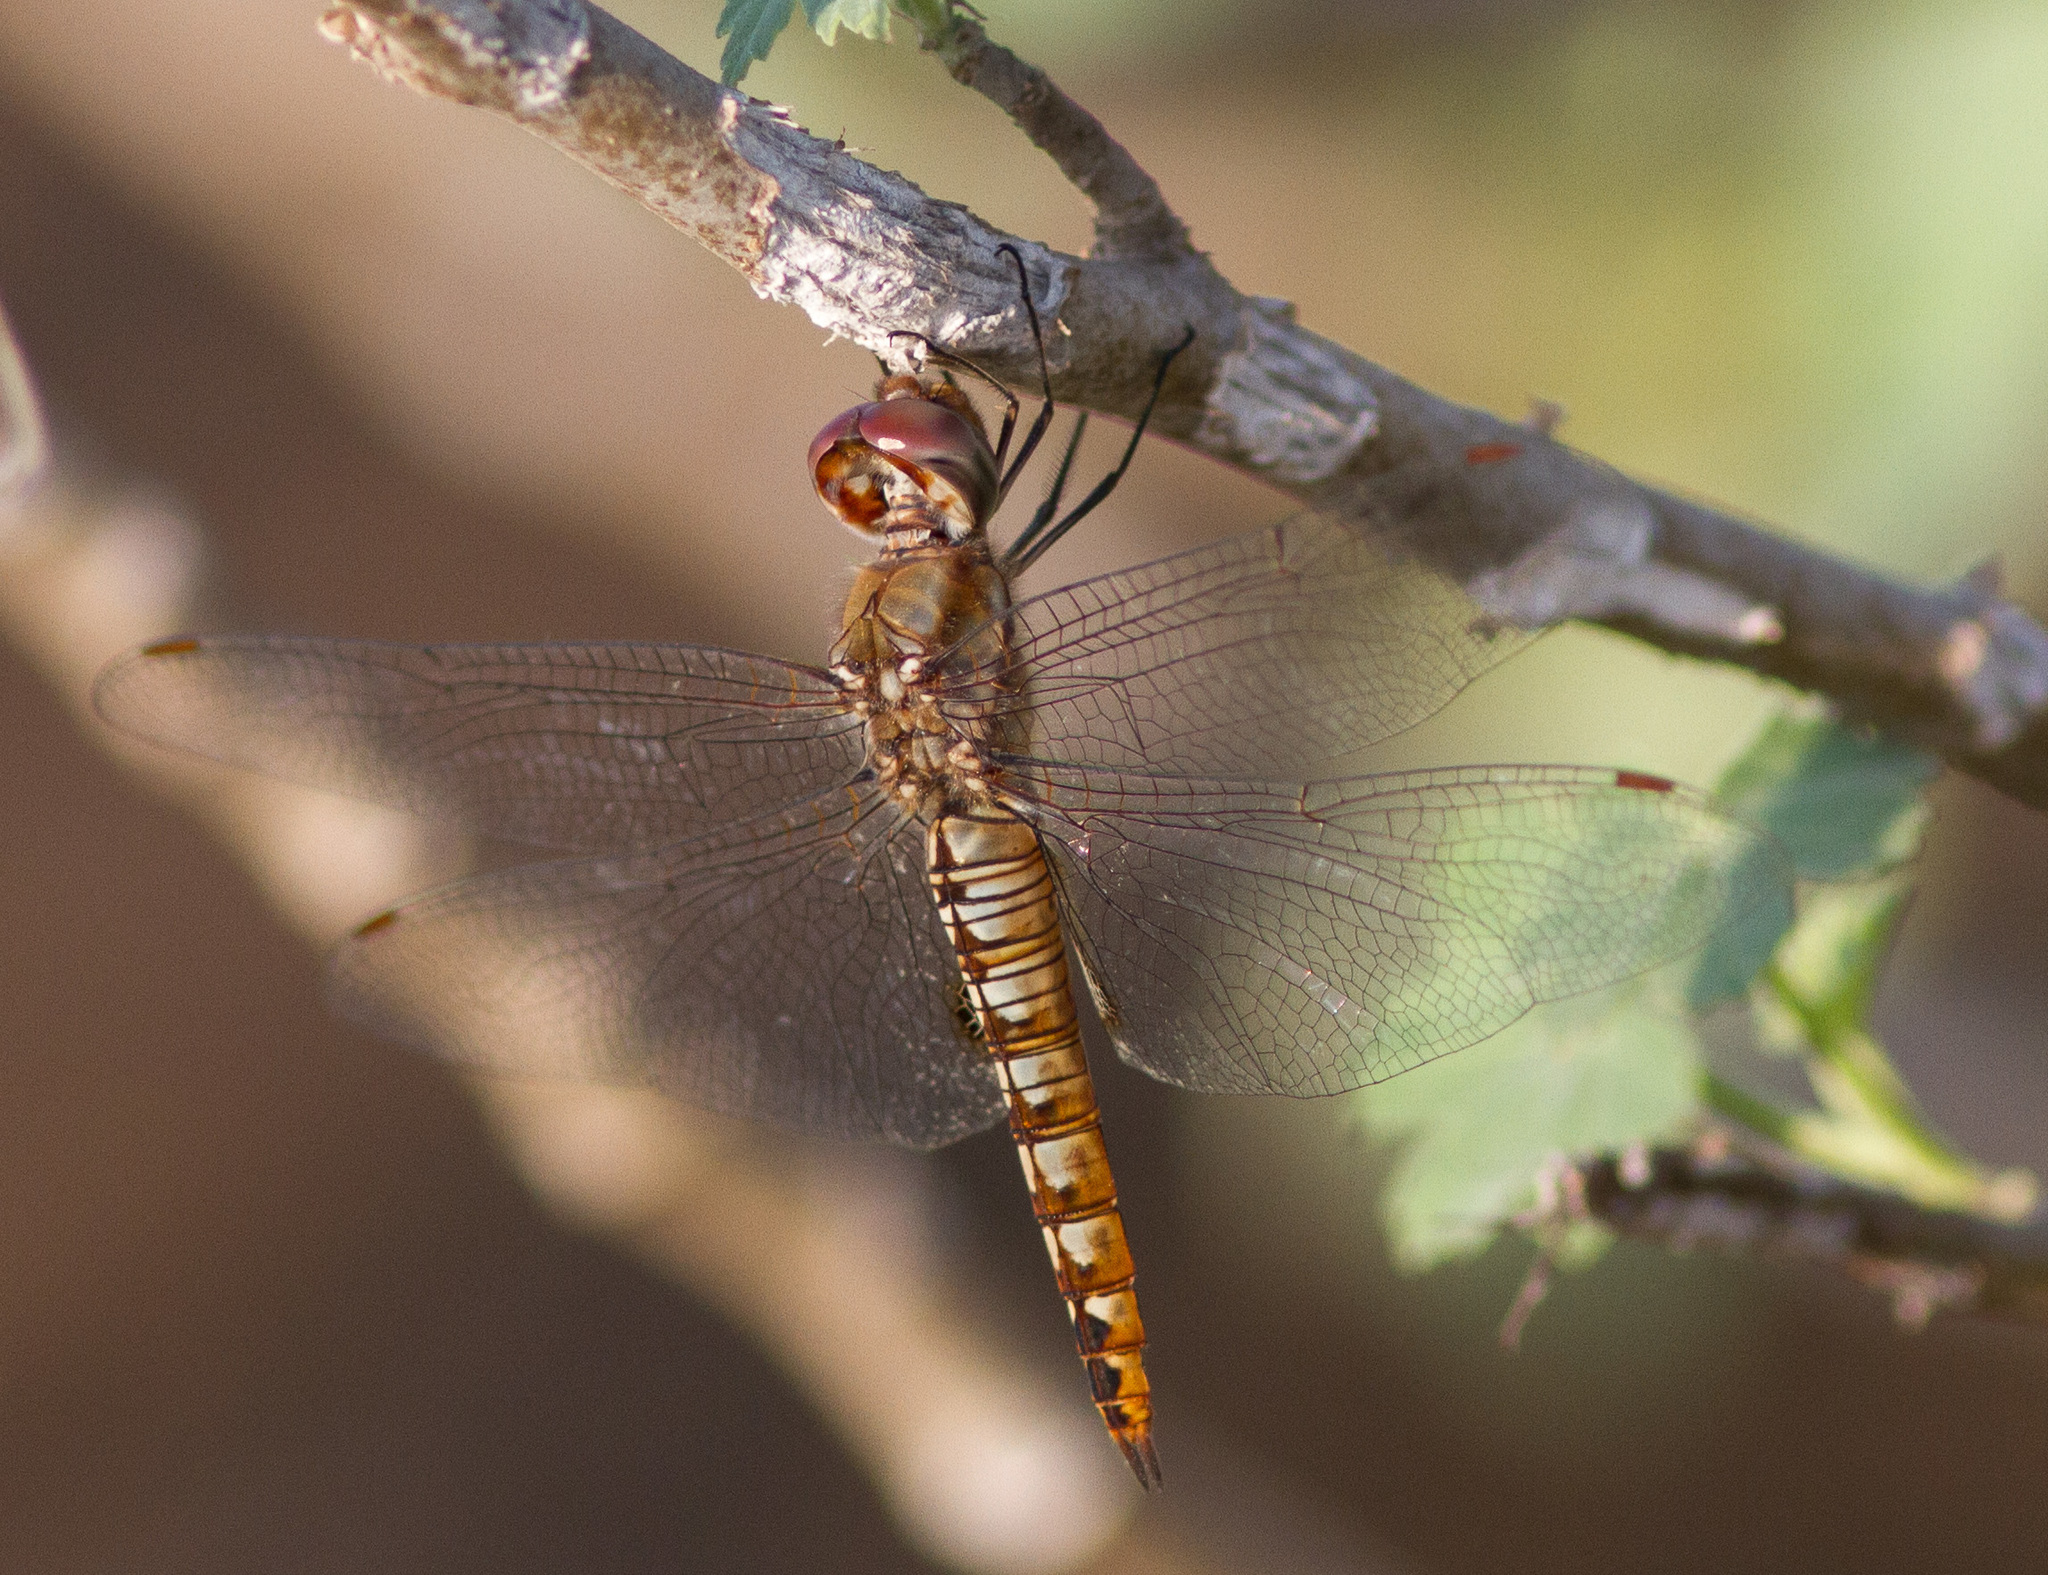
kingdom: Animalia
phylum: Arthropoda
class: Insecta
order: Odonata
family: Libellulidae
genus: Pantala
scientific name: Pantala hymenaea
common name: Spot-winged glider
